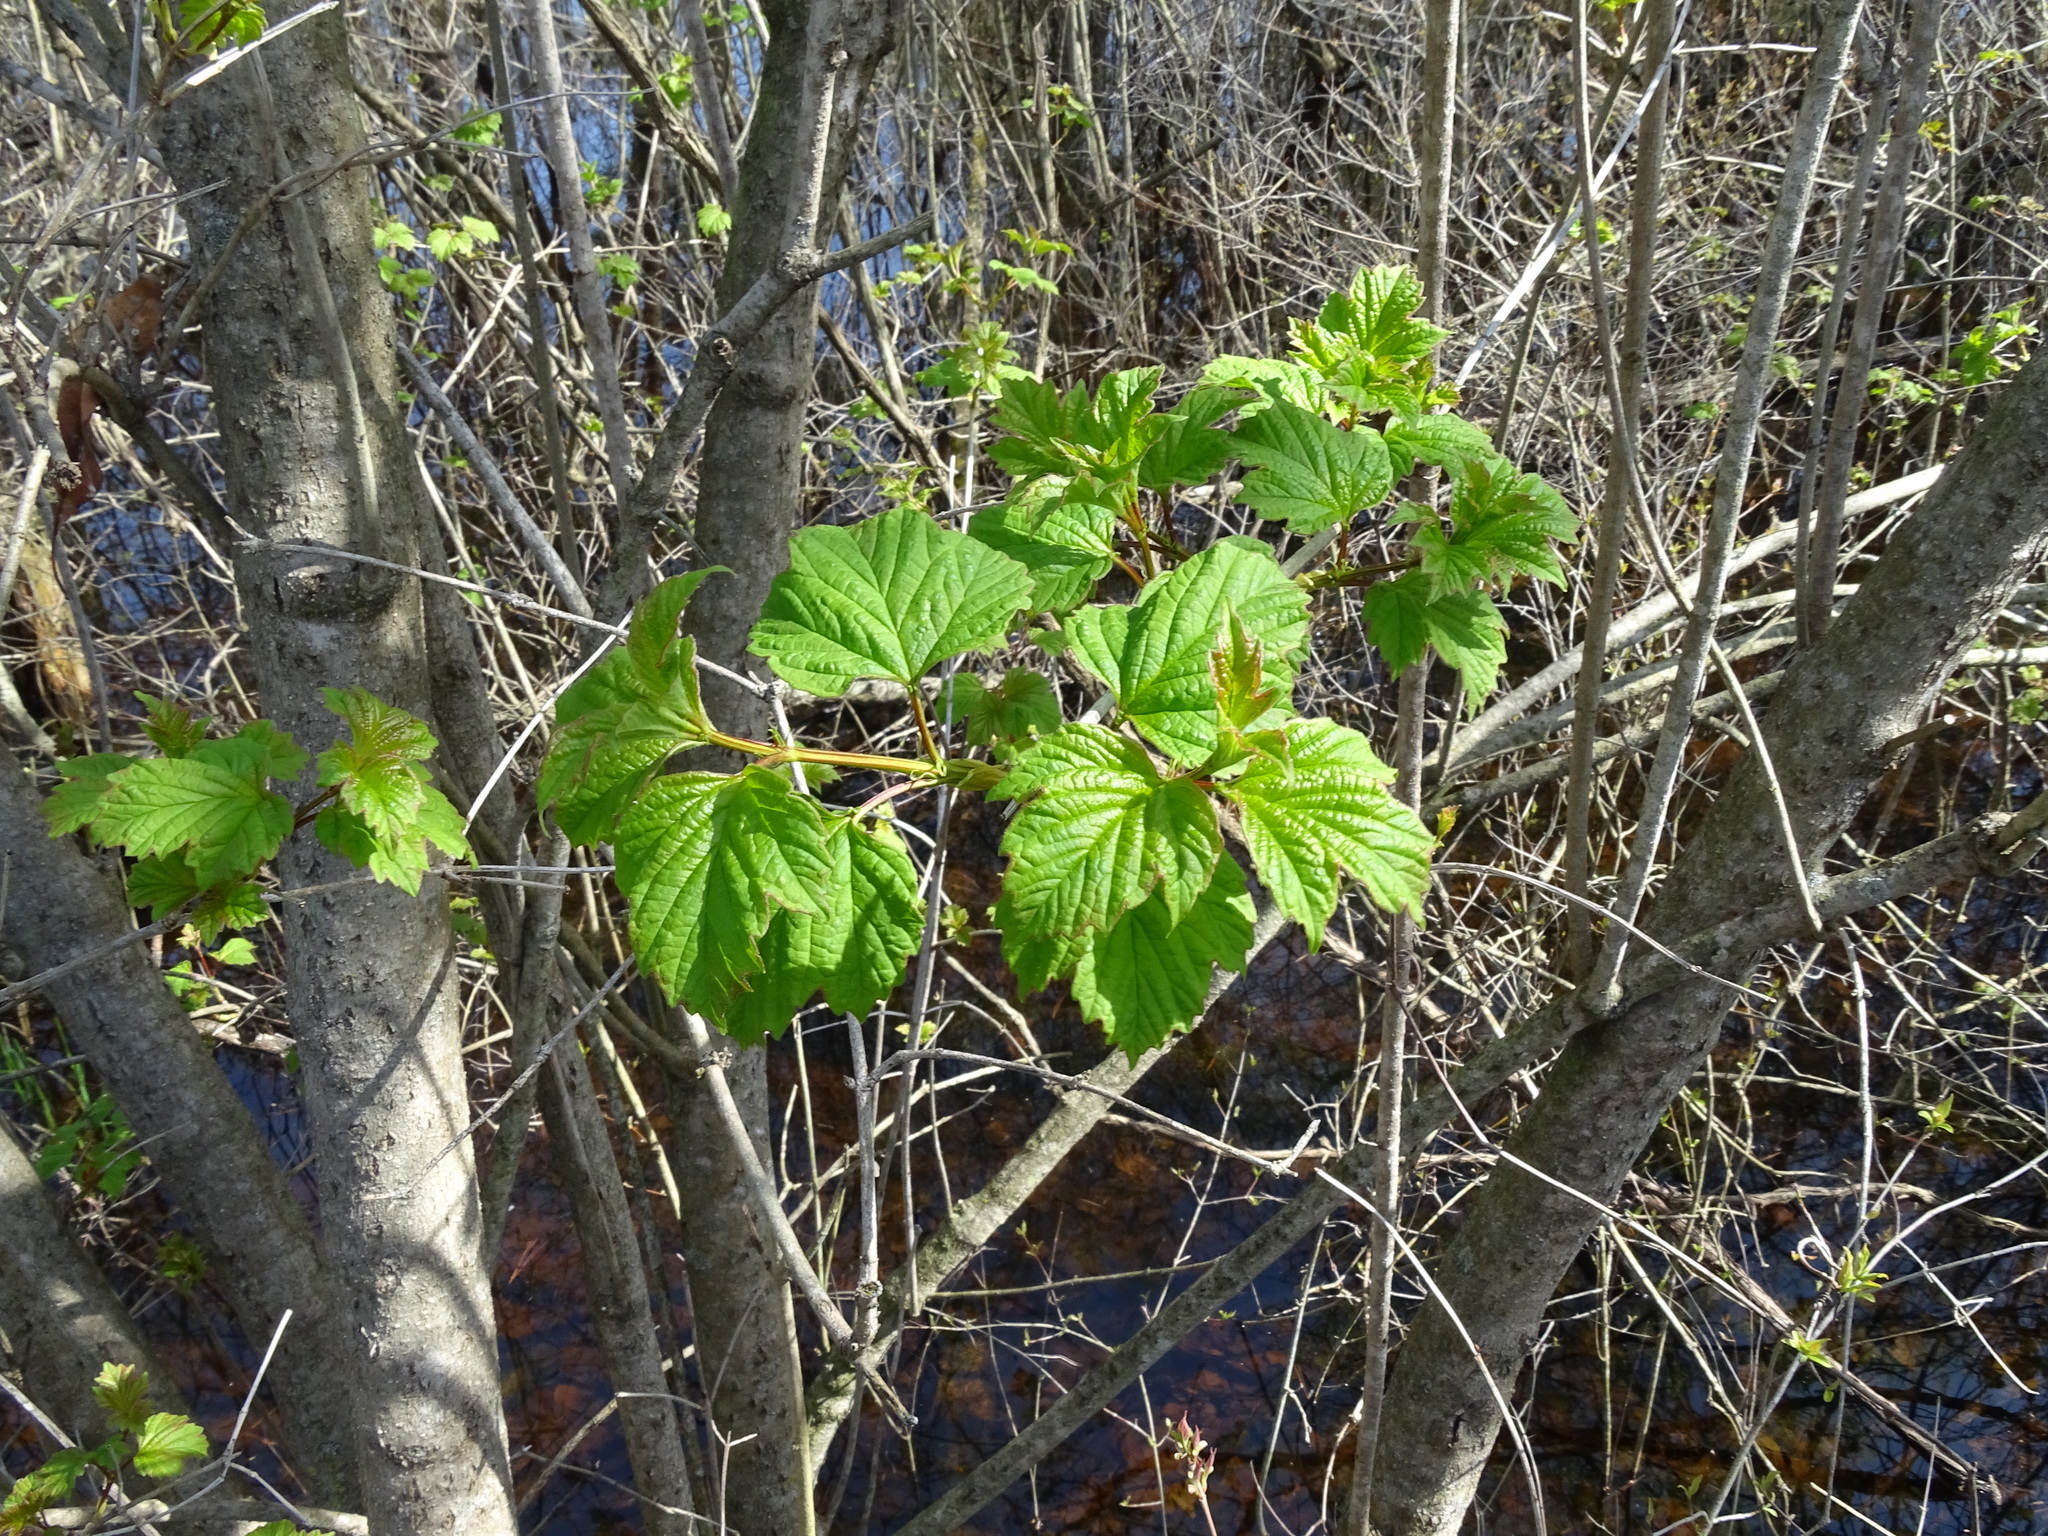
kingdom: Plantae
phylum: Tracheophyta
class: Magnoliopsida
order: Dipsacales
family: Viburnaceae
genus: Viburnum
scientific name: Viburnum opulus
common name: Guelder-rose
